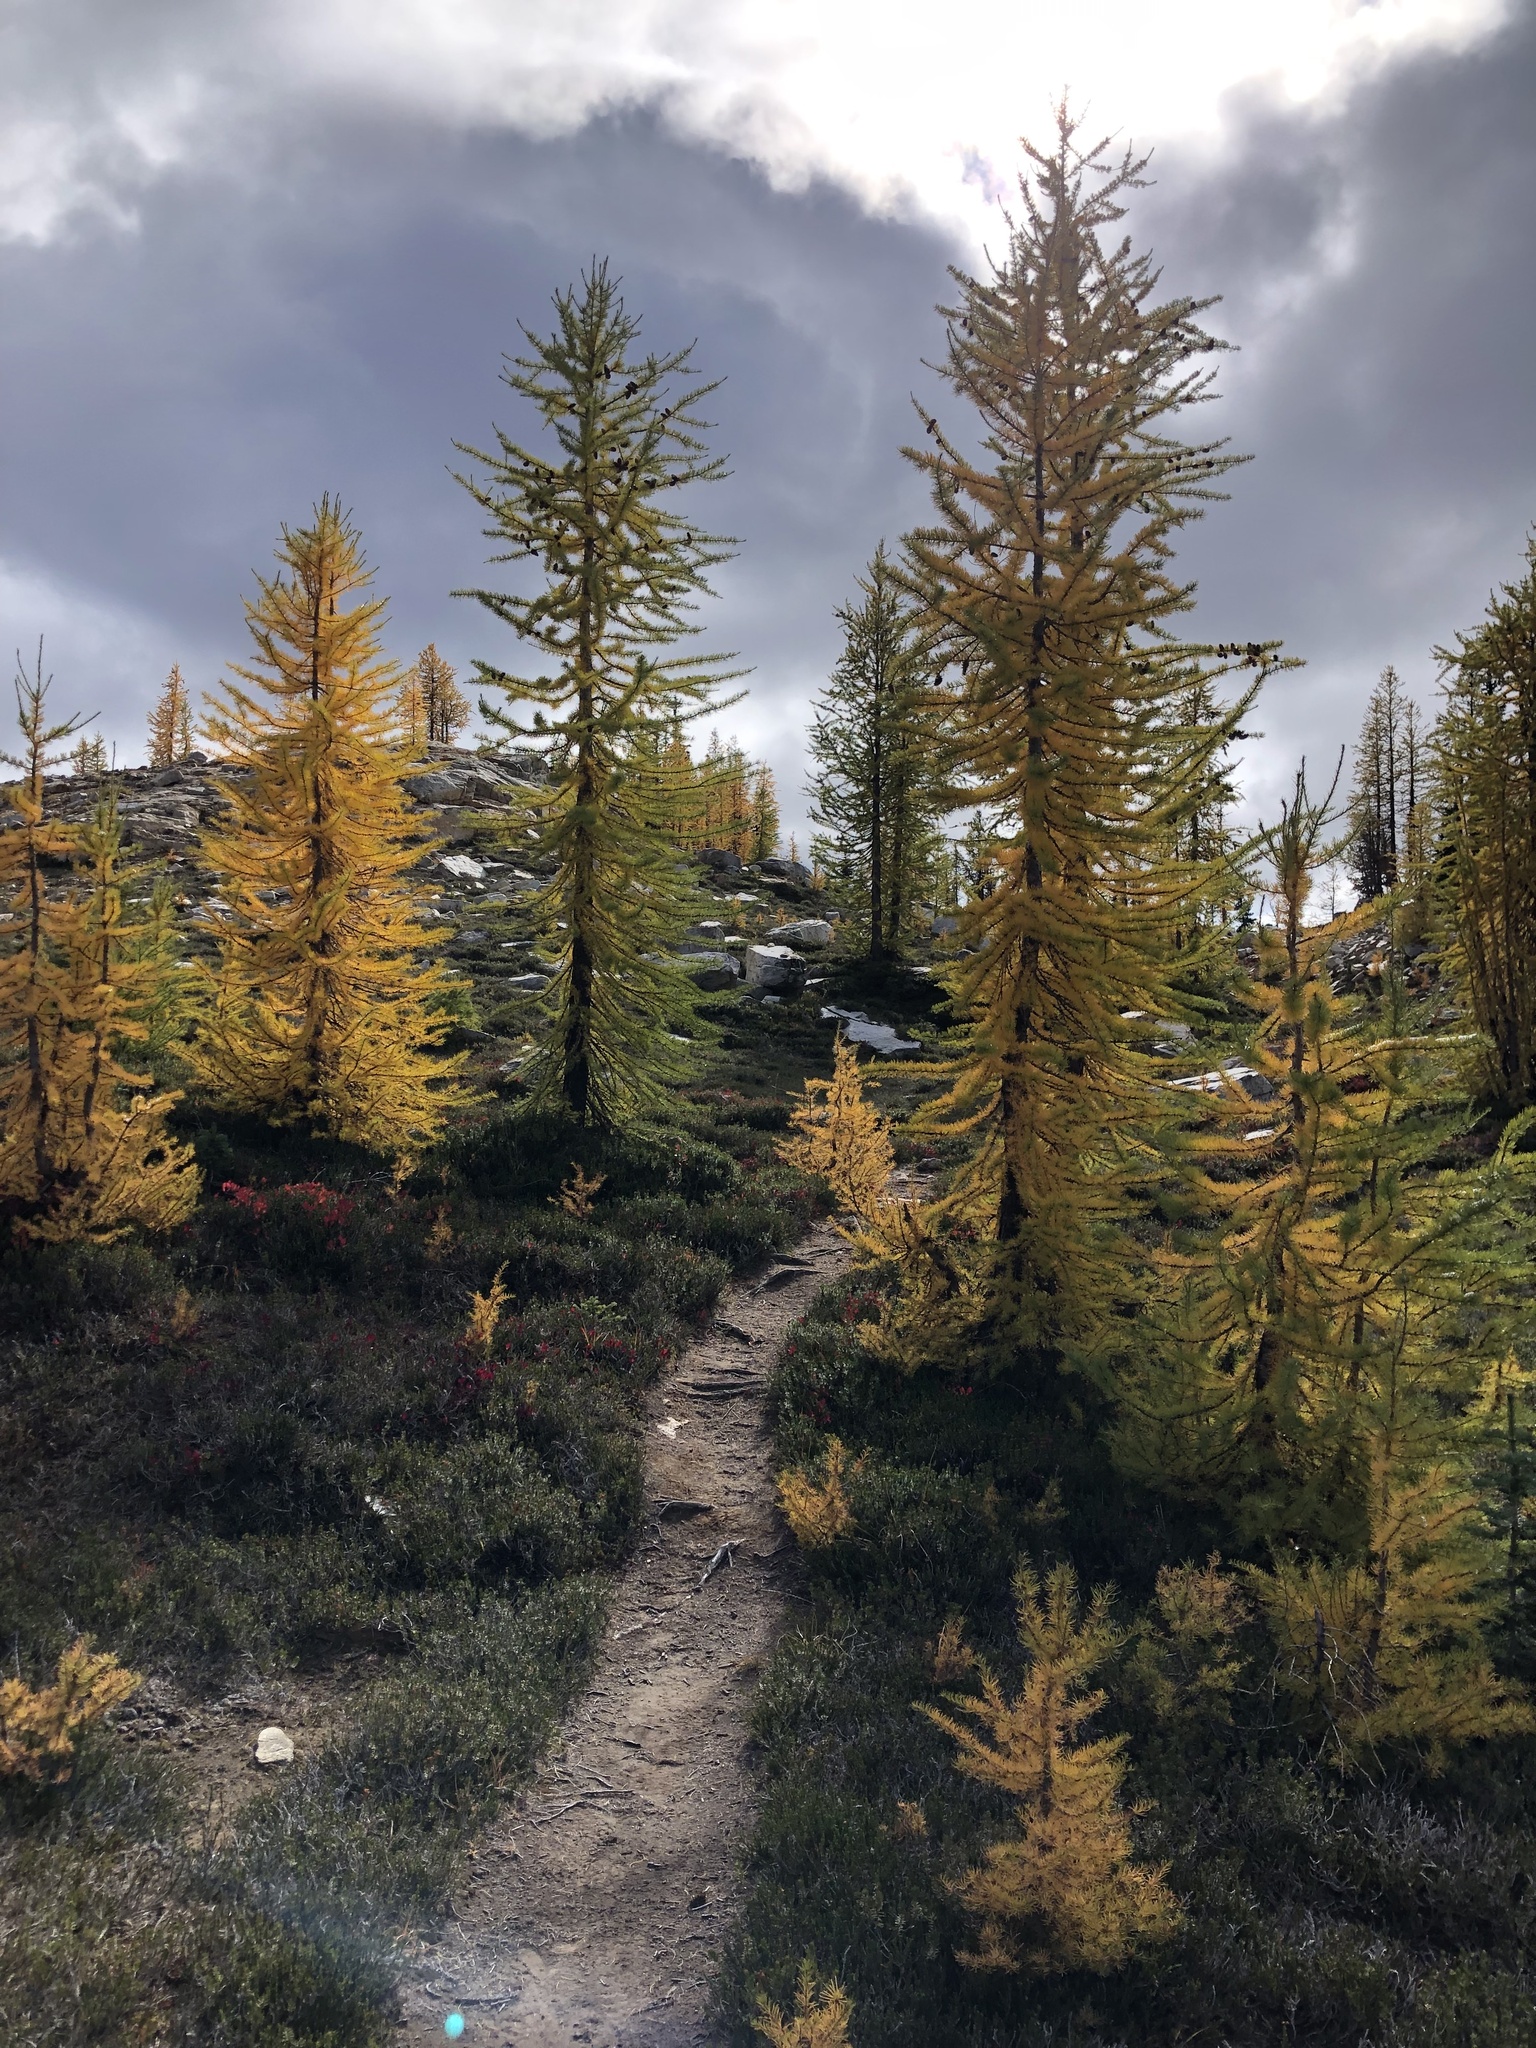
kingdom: Plantae
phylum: Tracheophyta
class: Pinopsida
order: Pinales
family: Pinaceae
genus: Larix
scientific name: Larix lyallii
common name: Alpine larch
